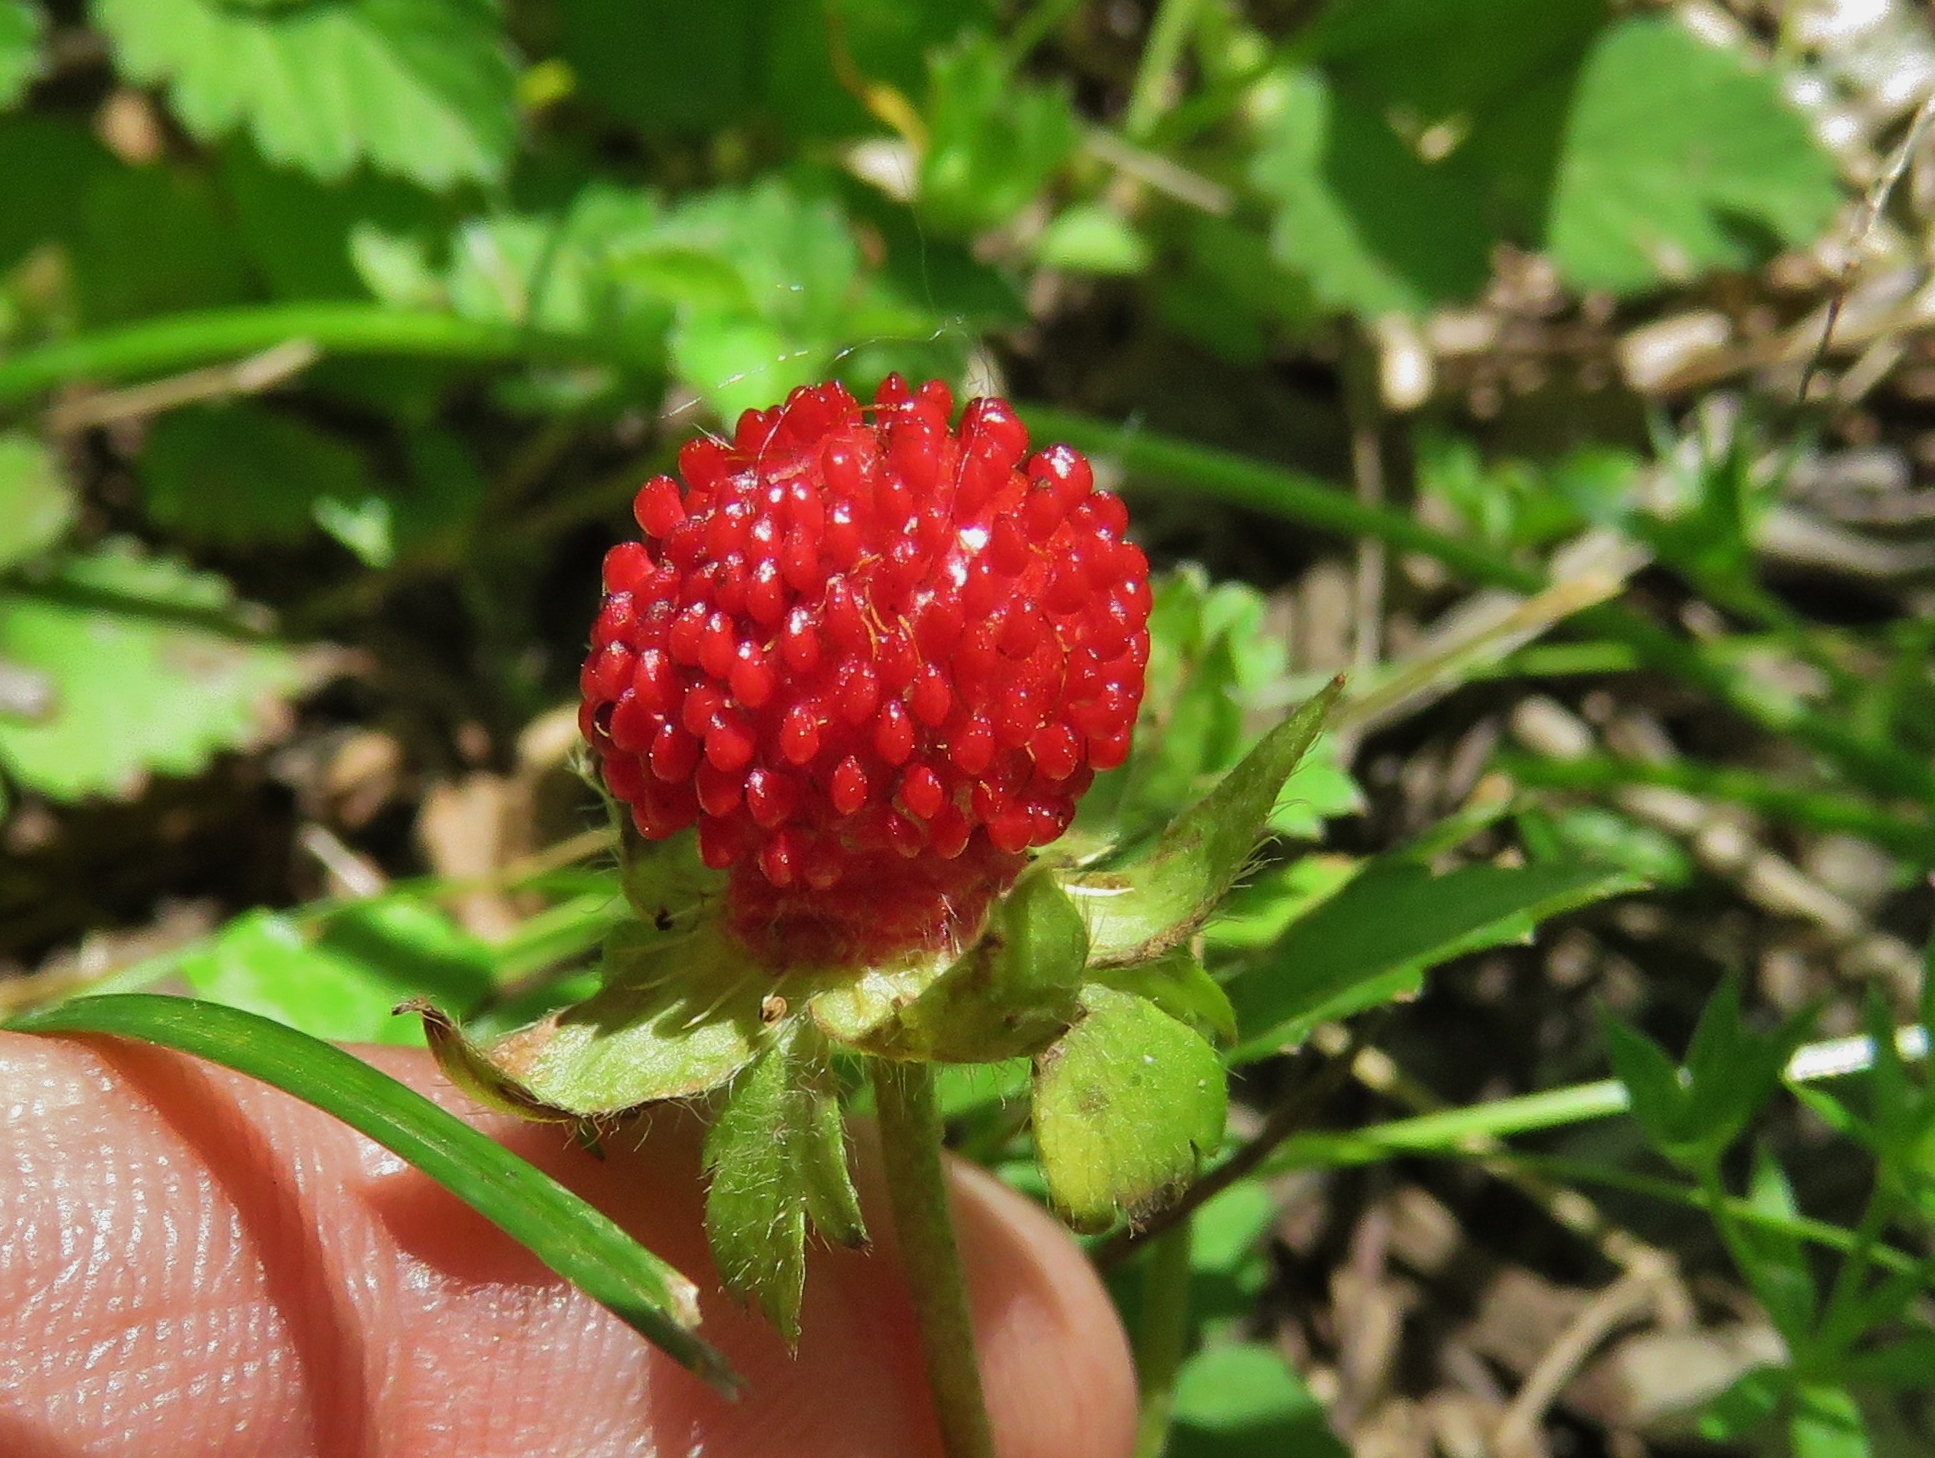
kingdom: Plantae
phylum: Tracheophyta
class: Magnoliopsida
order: Rosales
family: Rosaceae
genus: Potentilla
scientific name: Potentilla indica
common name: Yellow-flowered strawberry
